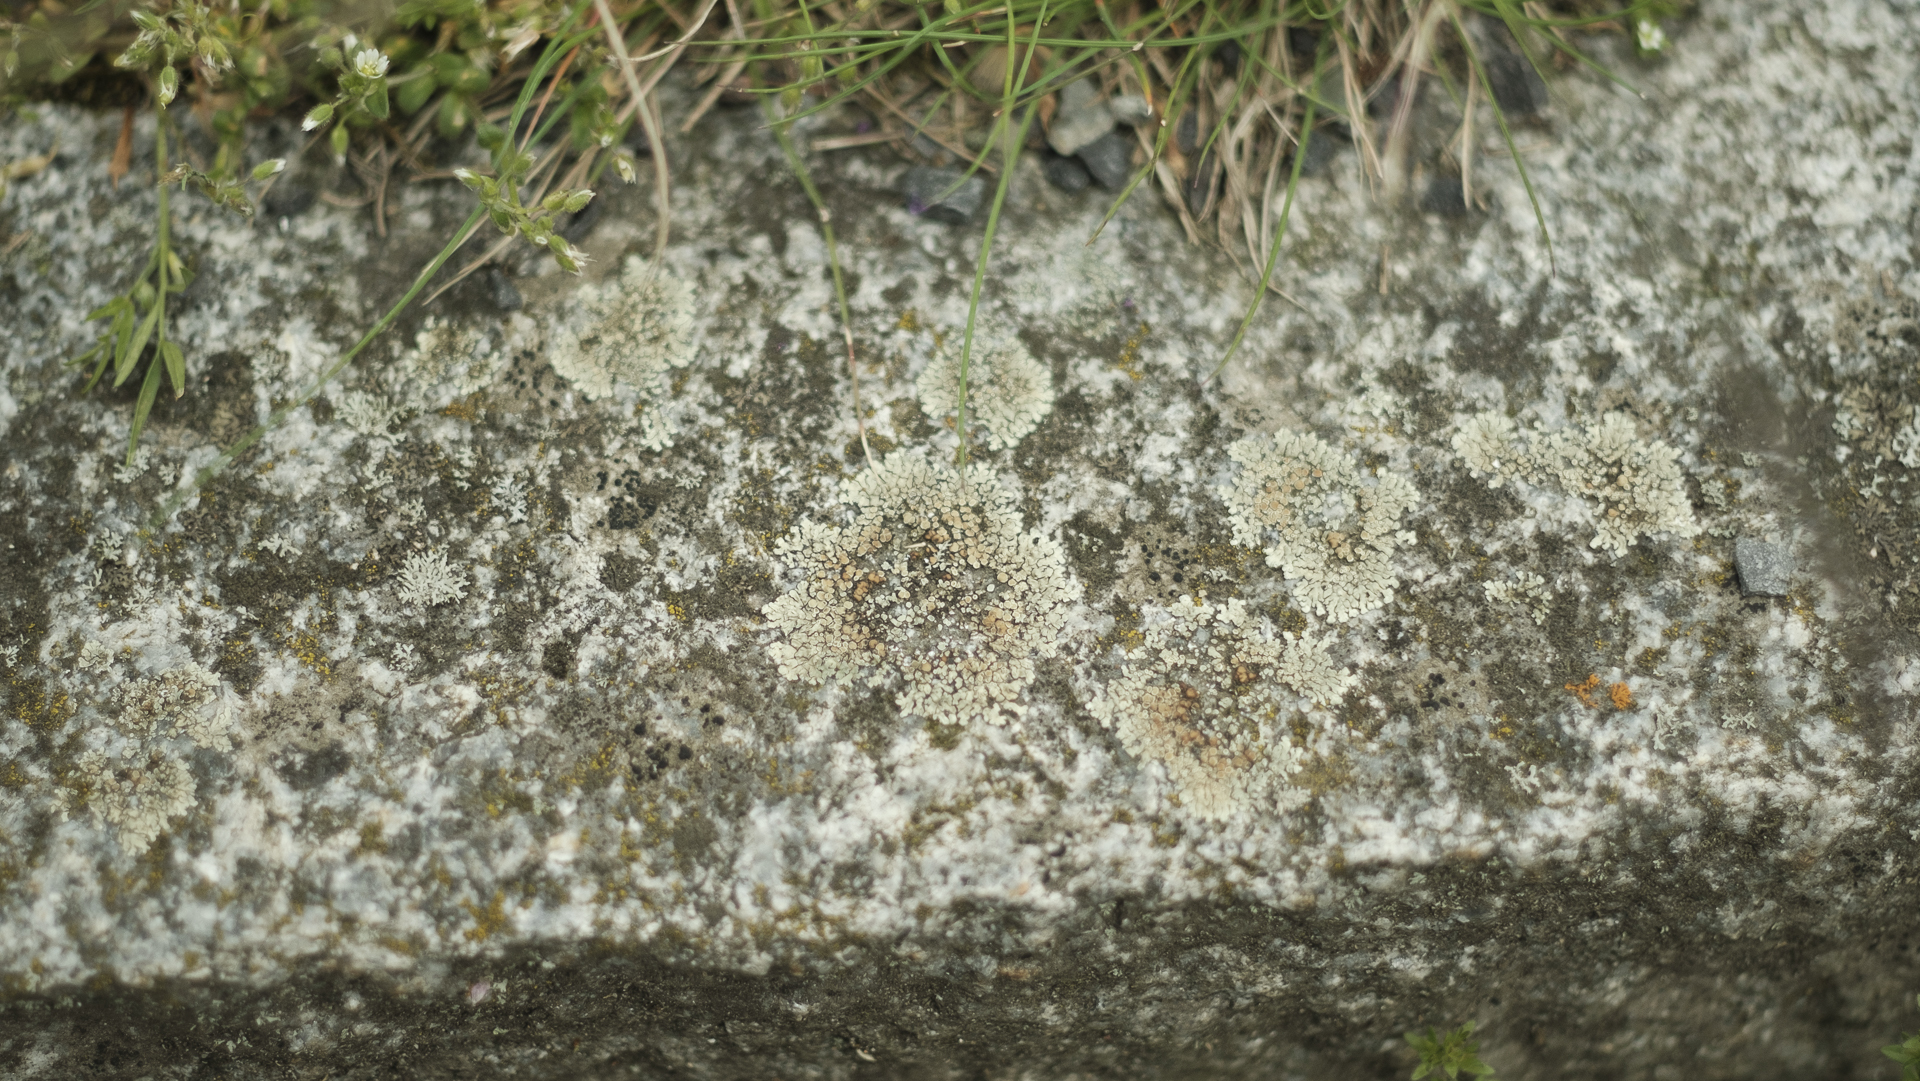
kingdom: Fungi
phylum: Ascomycota
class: Lecanoromycetes
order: Lecanorales
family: Lecanoraceae
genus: Protoparmeliopsis
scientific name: Protoparmeliopsis muralis
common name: Stonewall rim lichen
